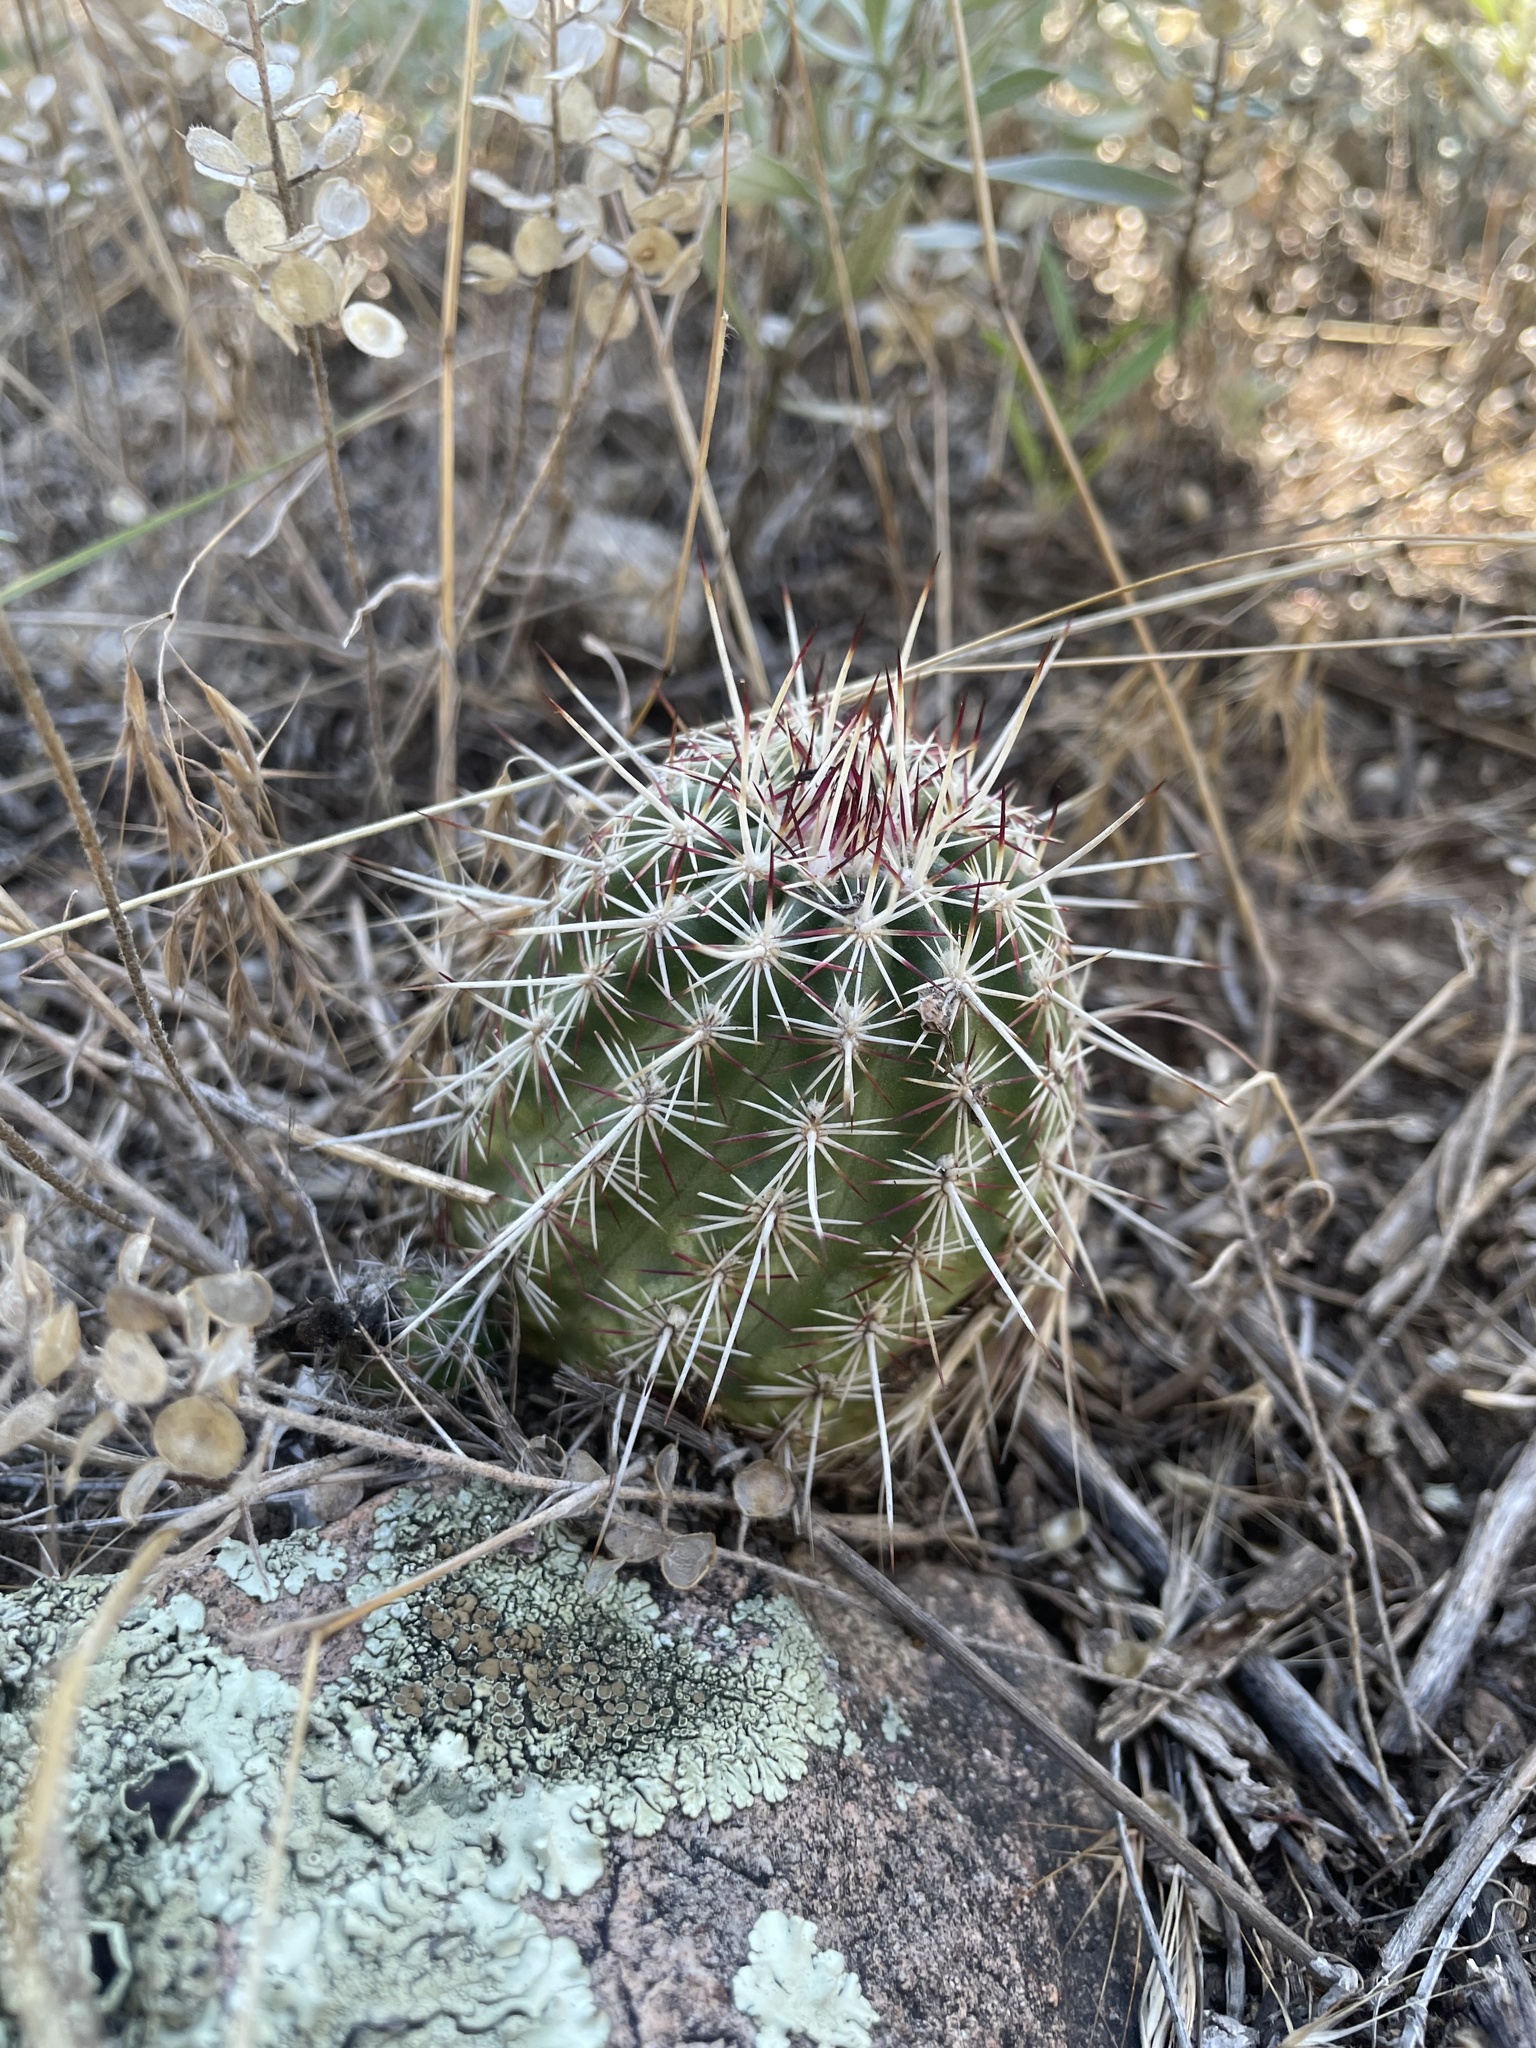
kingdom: Plantae
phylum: Tracheophyta
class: Magnoliopsida
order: Caryophyllales
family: Cactaceae
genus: Echinocereus
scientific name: Echinocereus viridiflorus
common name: Nylon hedgehog cactus
